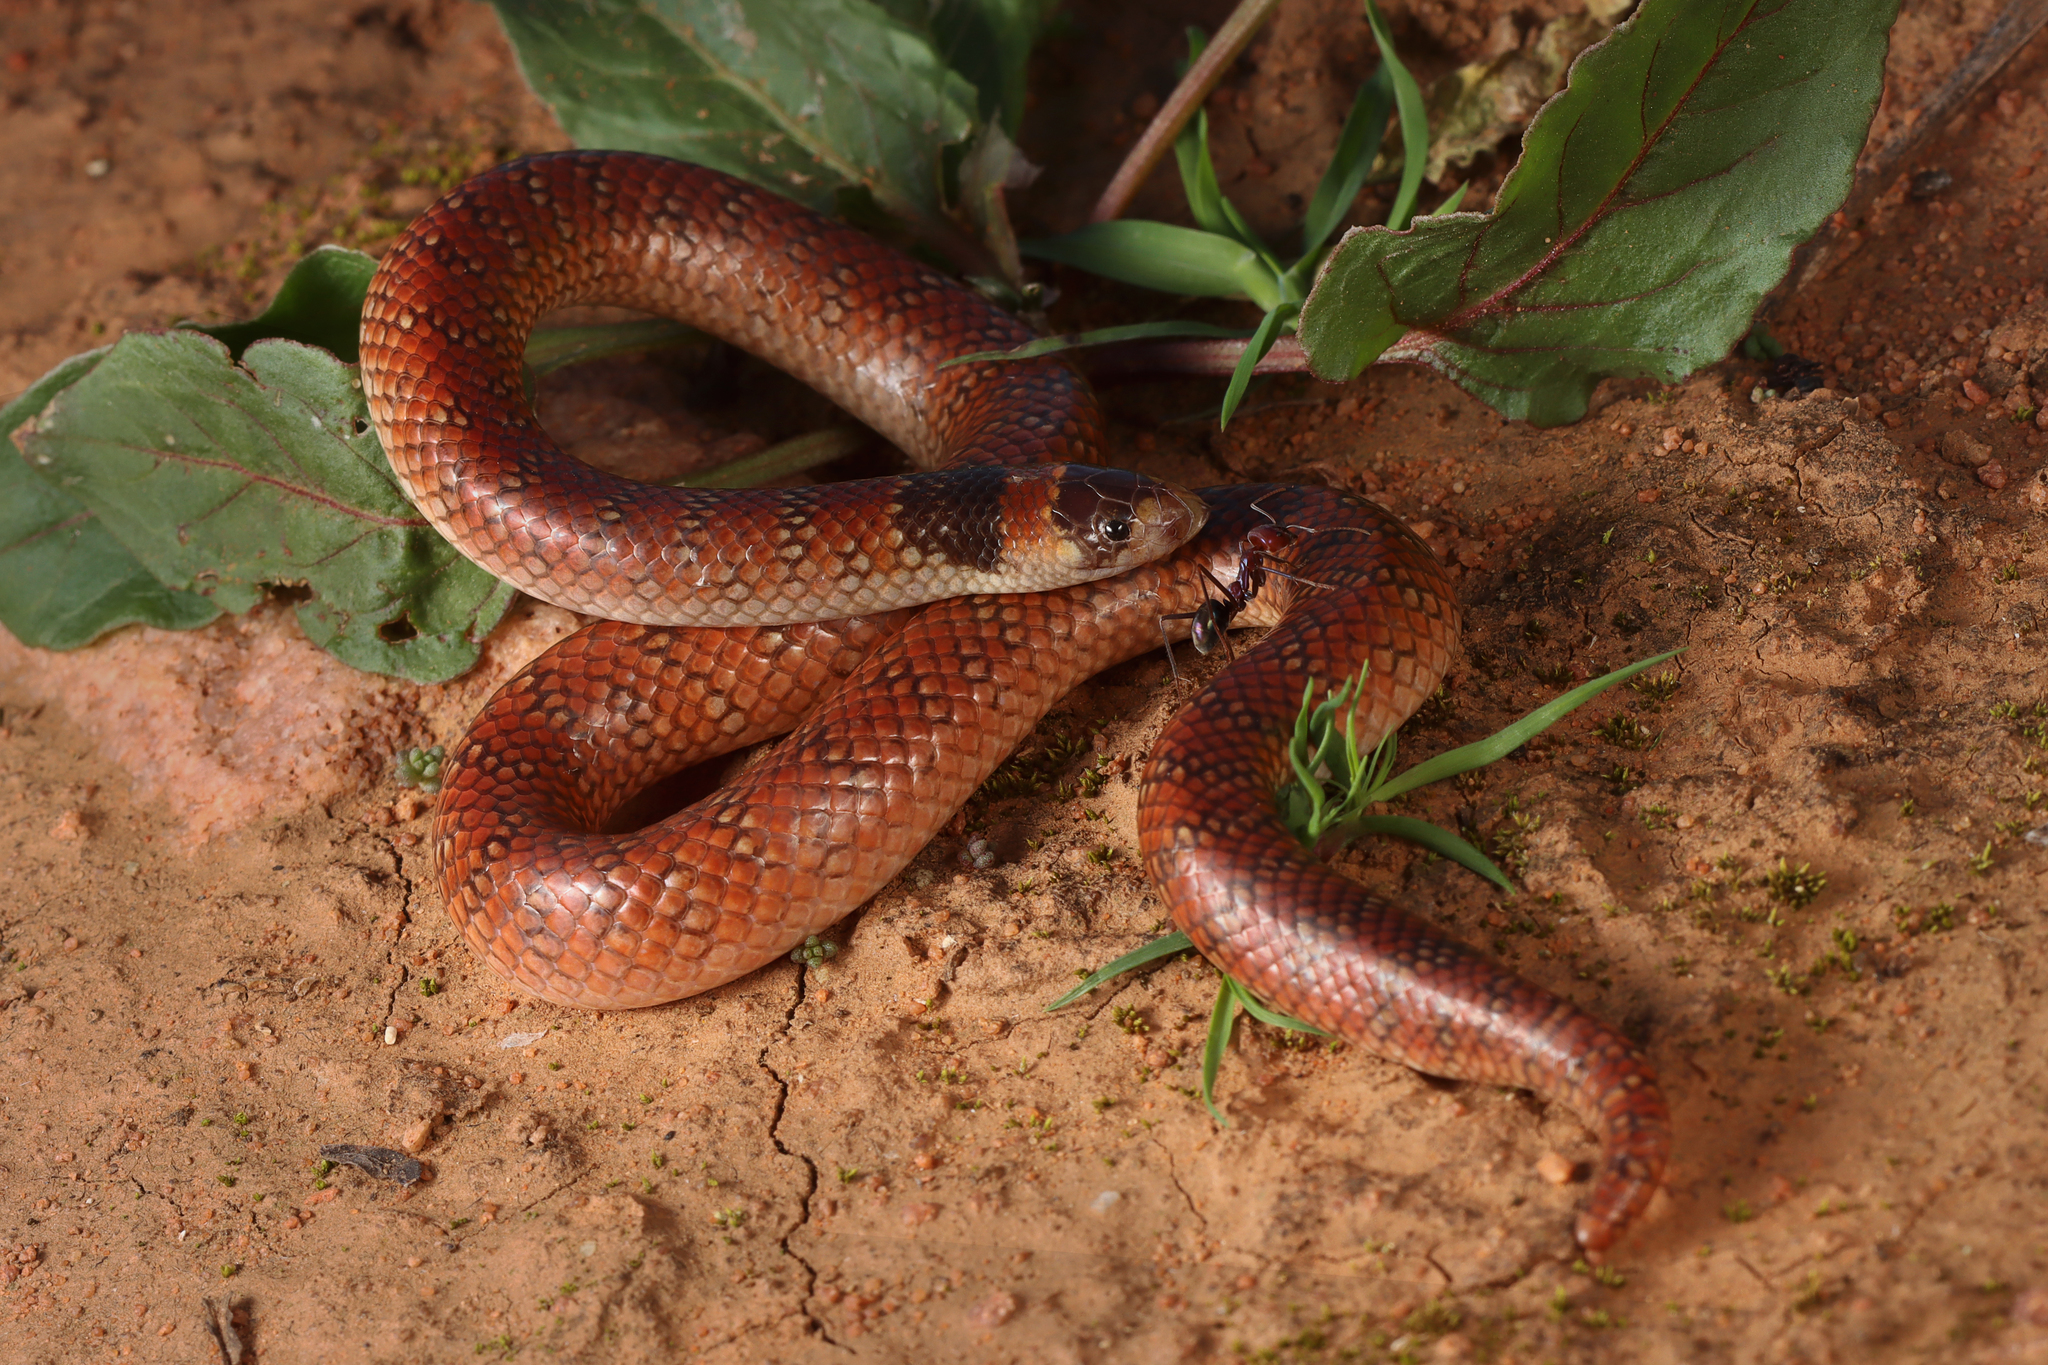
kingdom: Animalia
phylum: Chordata
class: Squamata
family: Elapidae
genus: Brachyurophis
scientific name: Brachyurophis australis
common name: Australian coral snake
